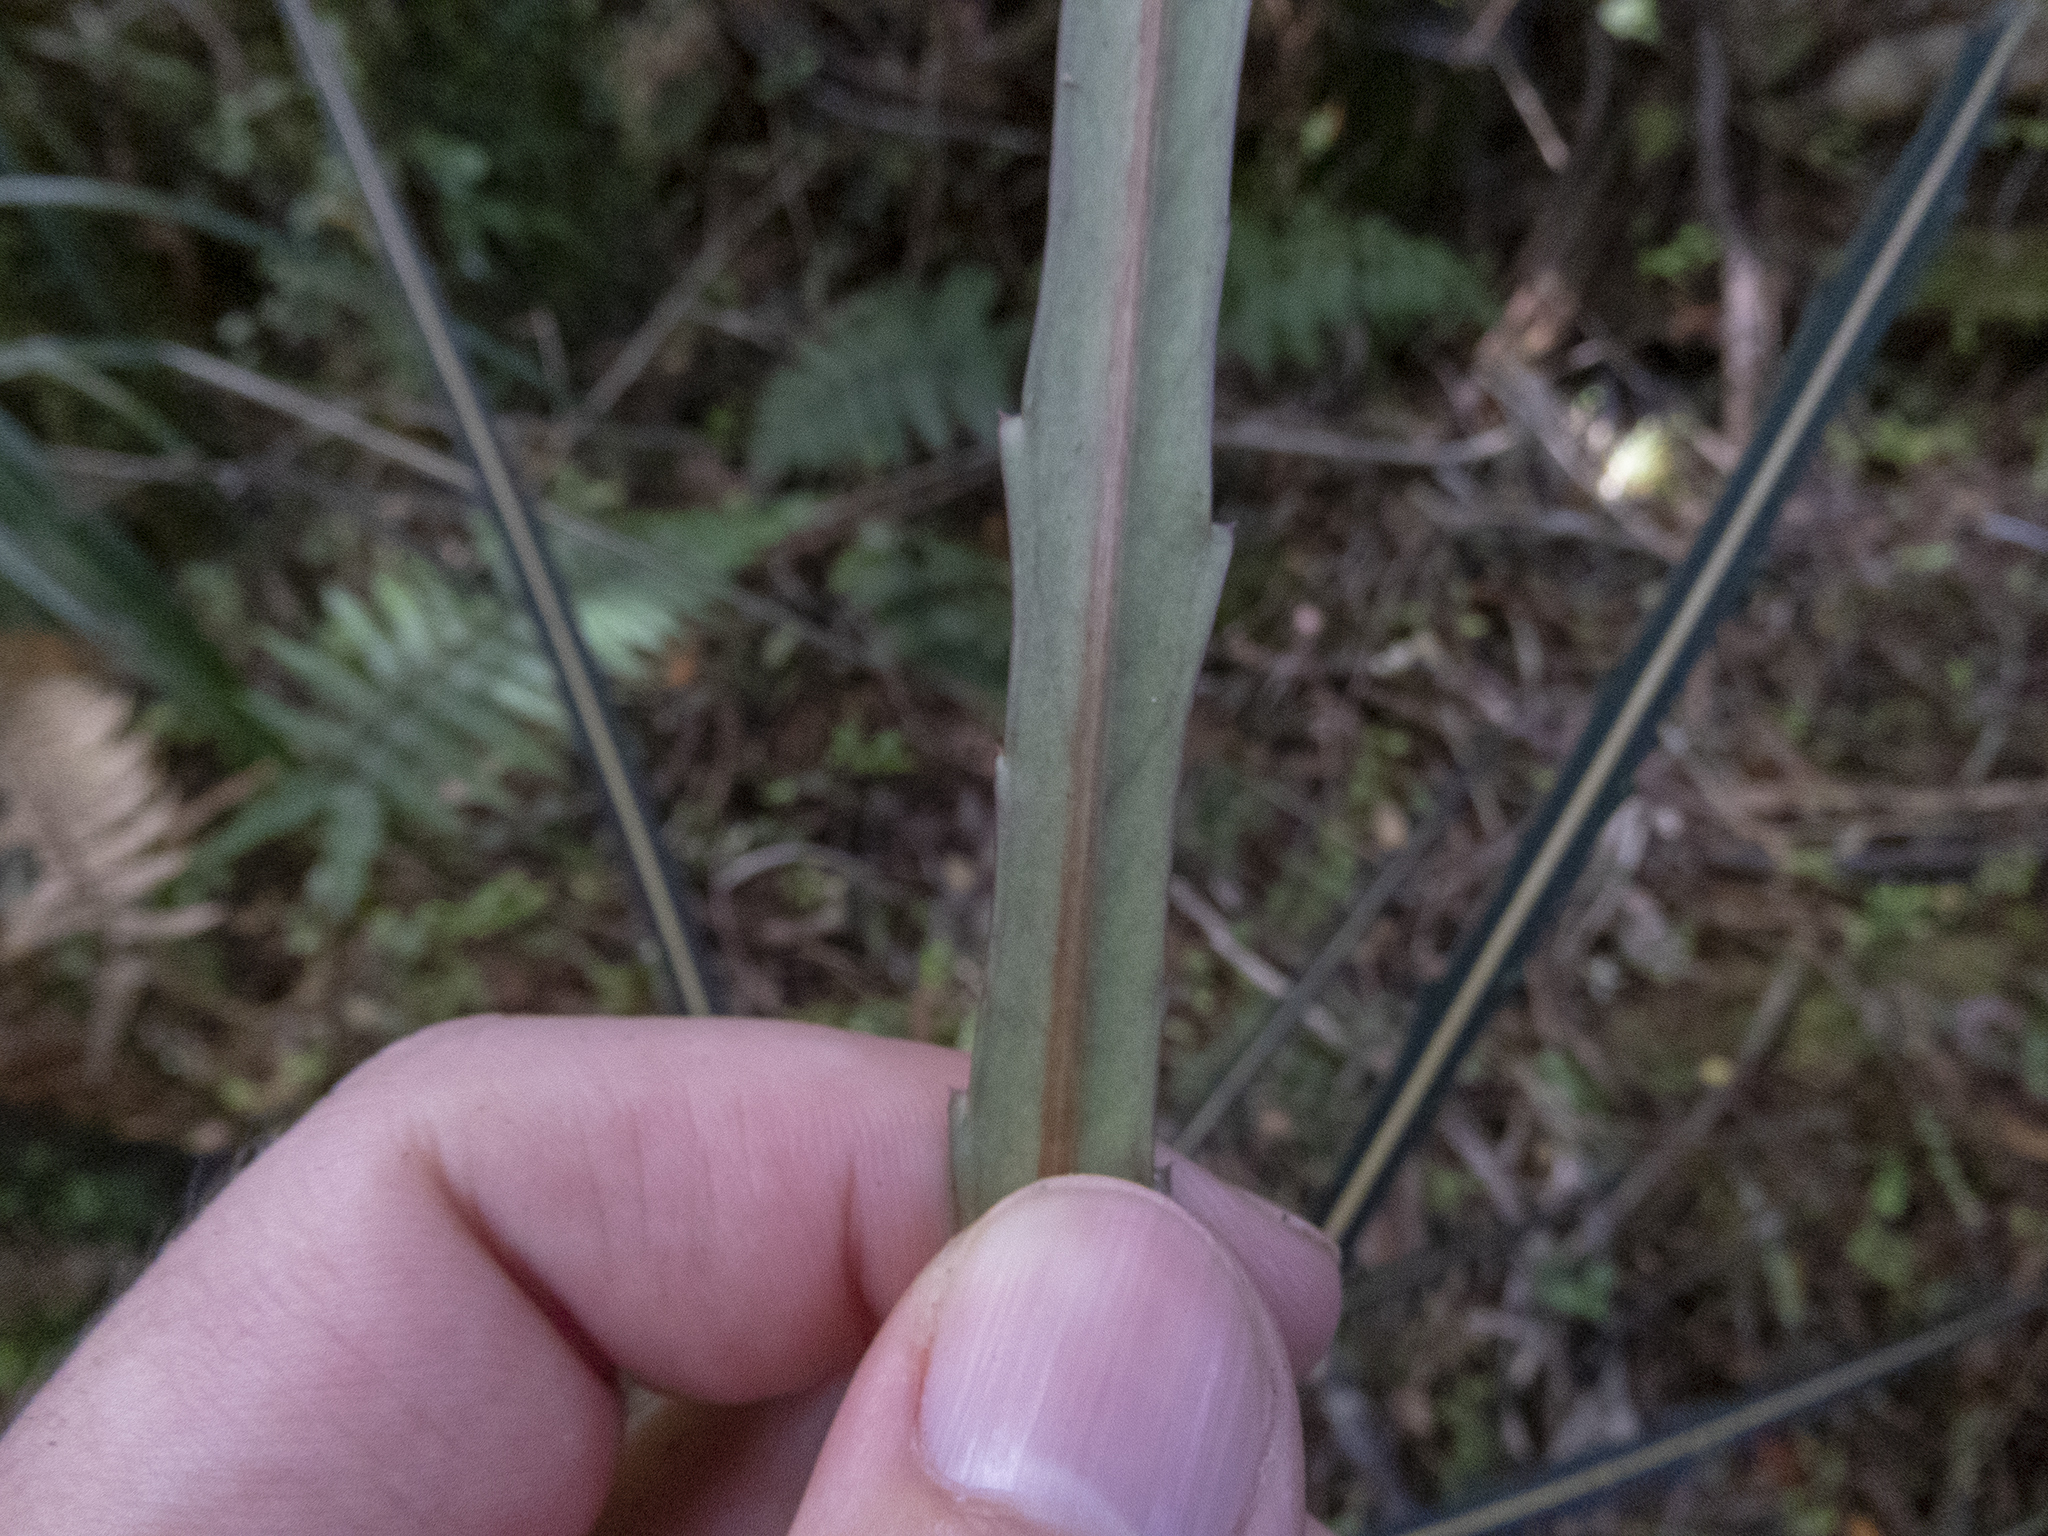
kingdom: Plantae
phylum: Tracheophyta
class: Magnoliopsida
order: Apiales
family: Araliaceae
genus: Pseudopanax
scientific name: Pseudopanax crassifolius
